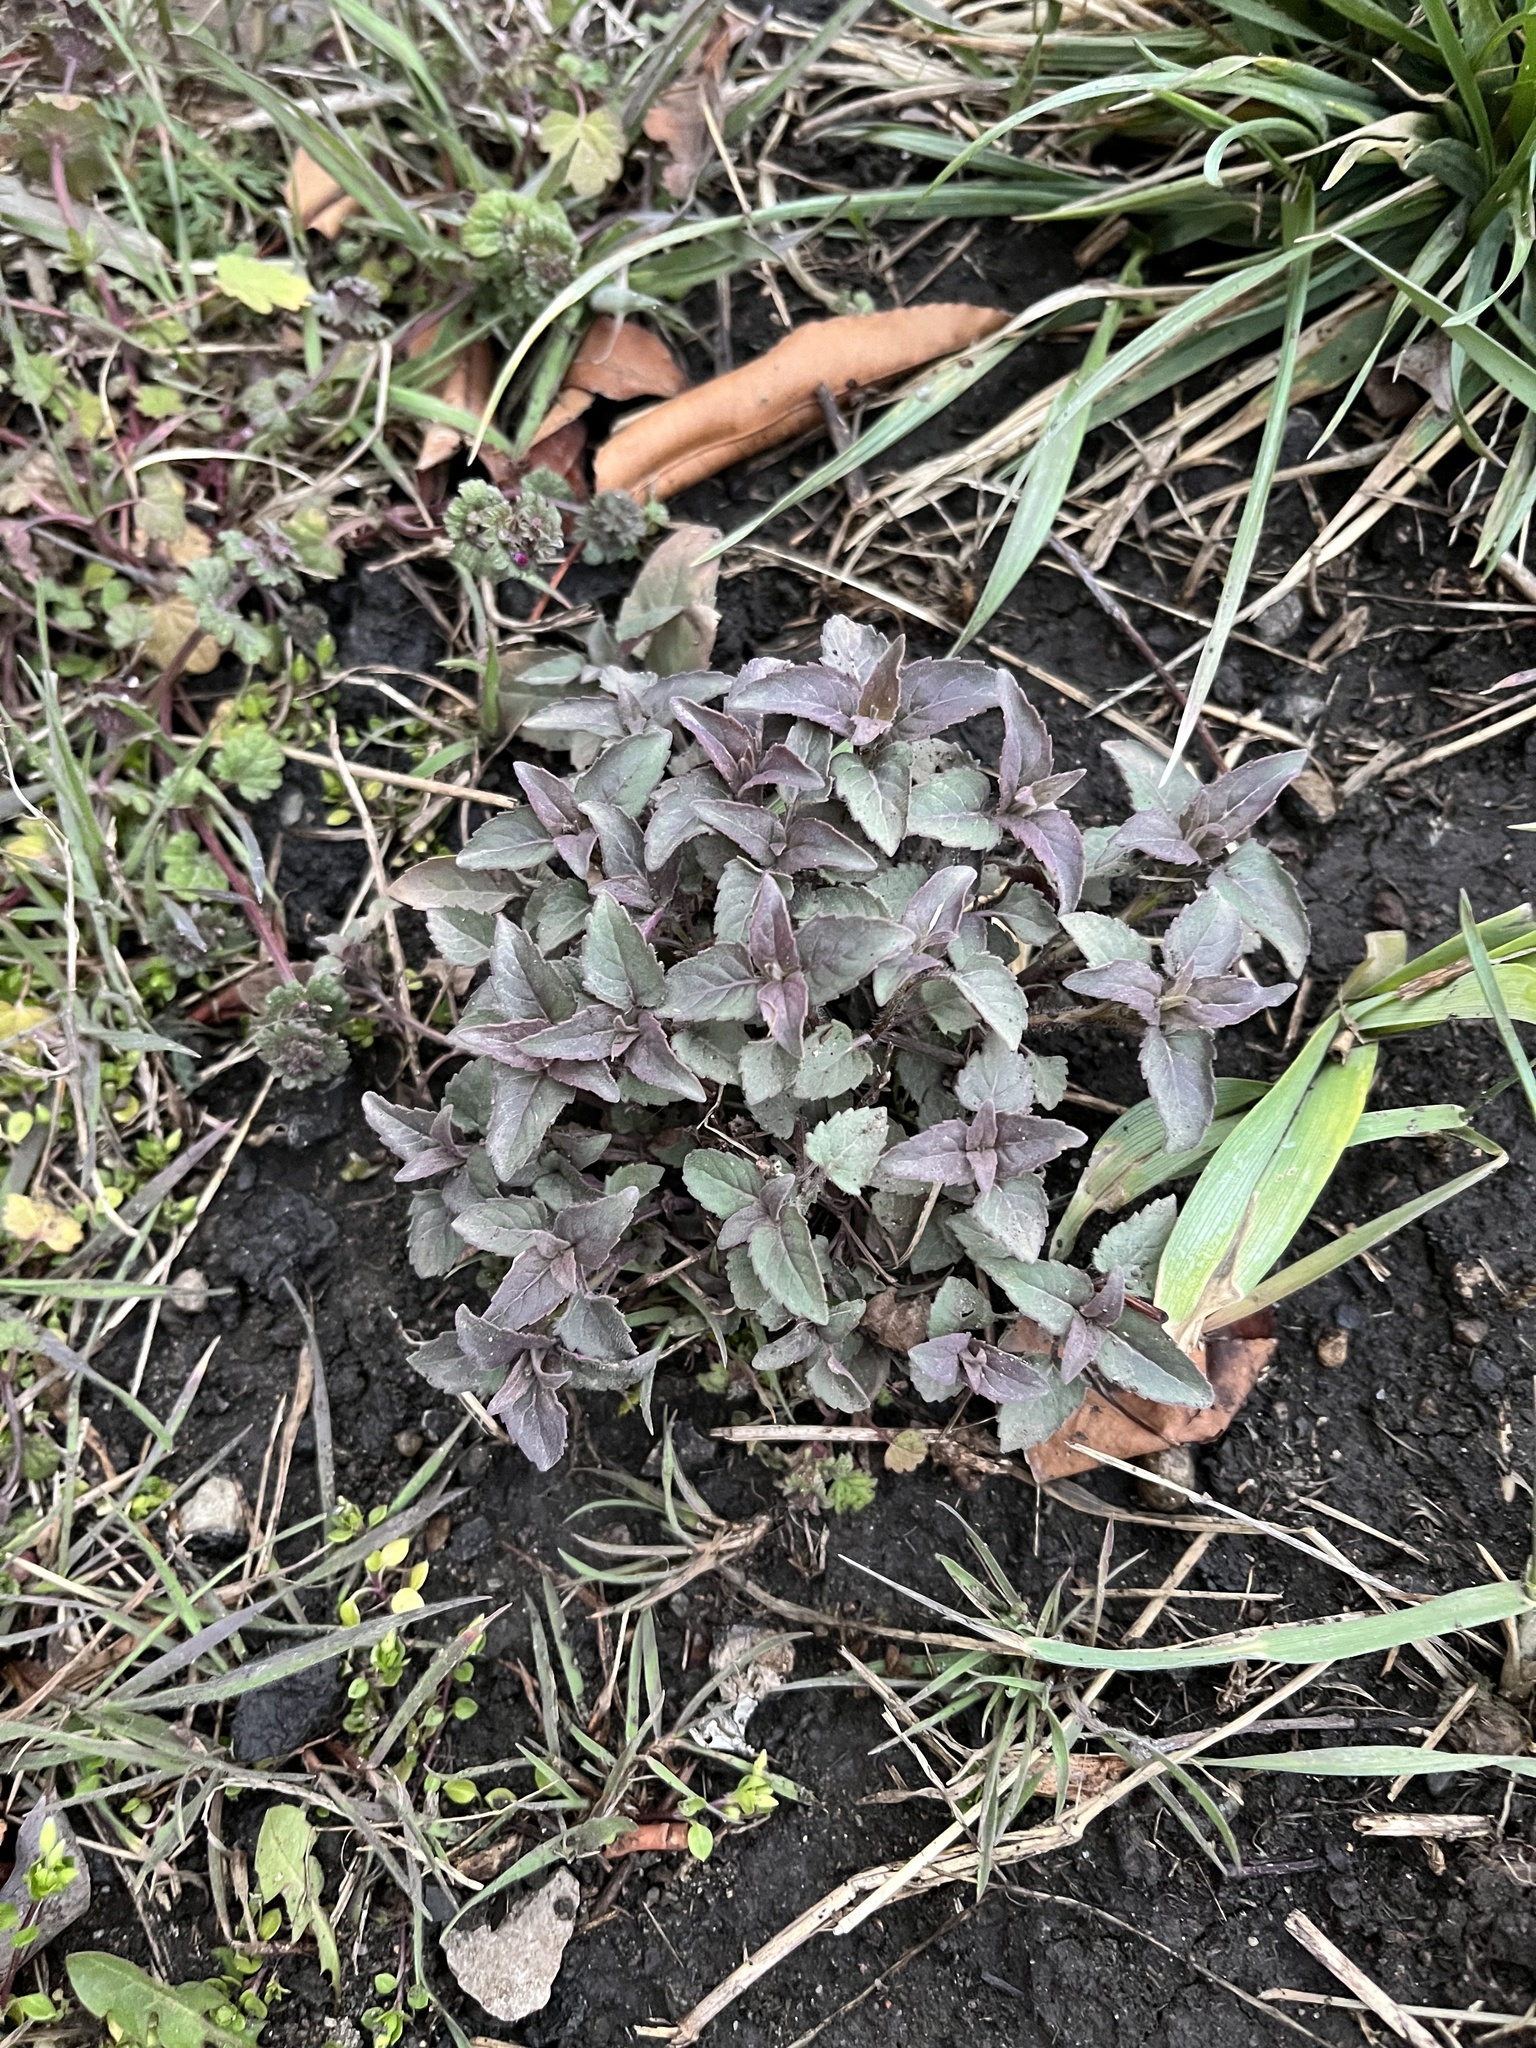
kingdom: Plantae
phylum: Tracheophyta
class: Magnoliopsida
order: Lamiales
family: Lamiaceae
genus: Monarda
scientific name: Monarda fistulosa
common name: Purple beebalm
